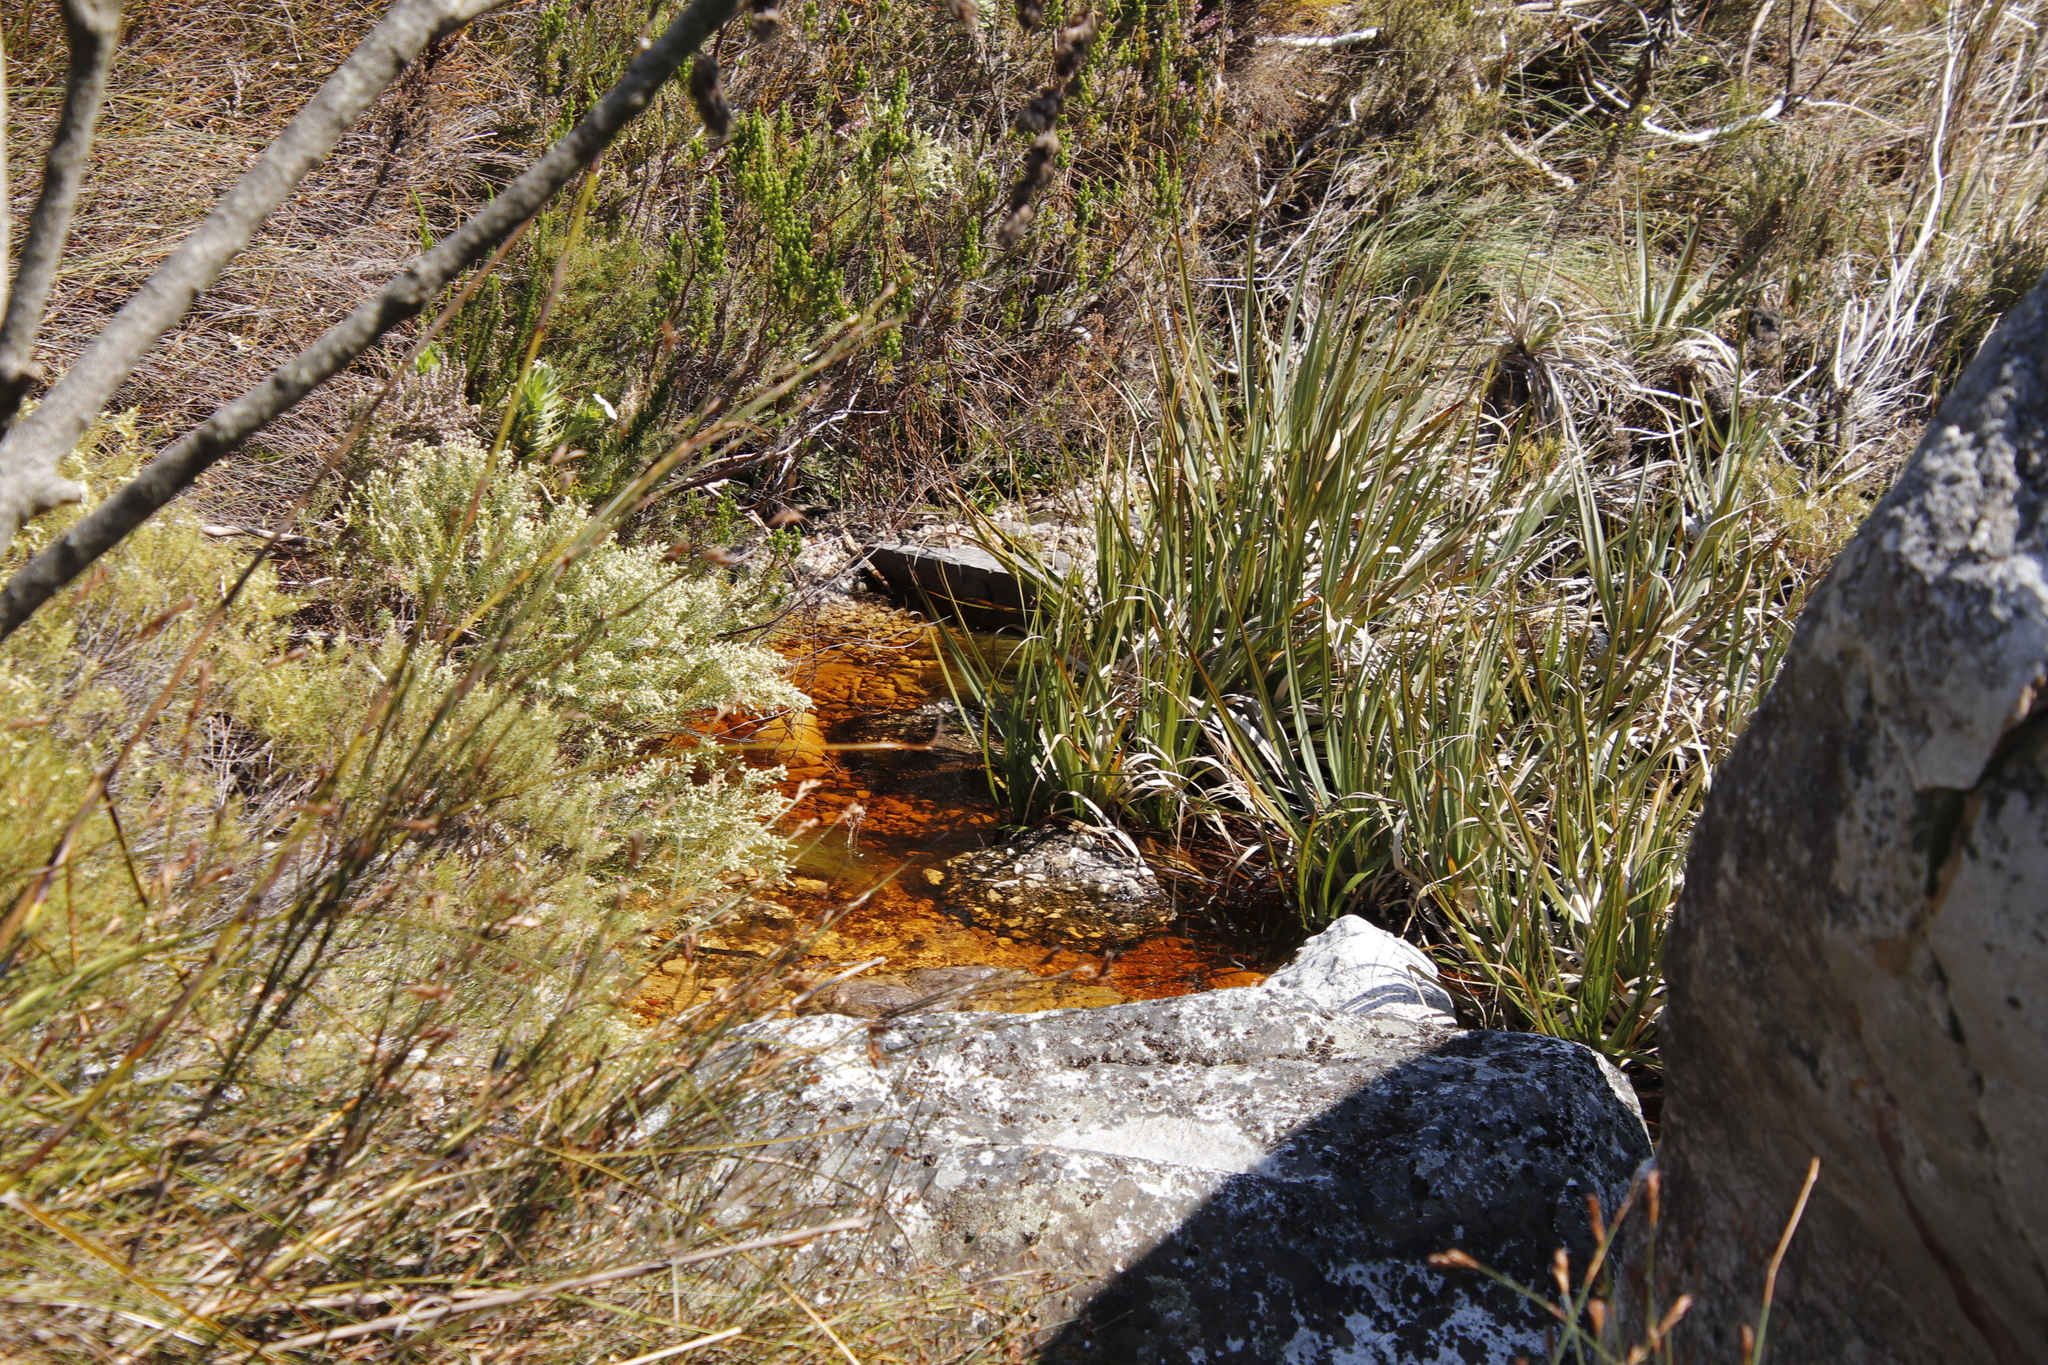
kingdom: Plantae
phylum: Tracheophyta
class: Liliopsida
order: Poales
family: Thurniaceae
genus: Prionium
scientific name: Prionium serratum
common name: Palmiet
